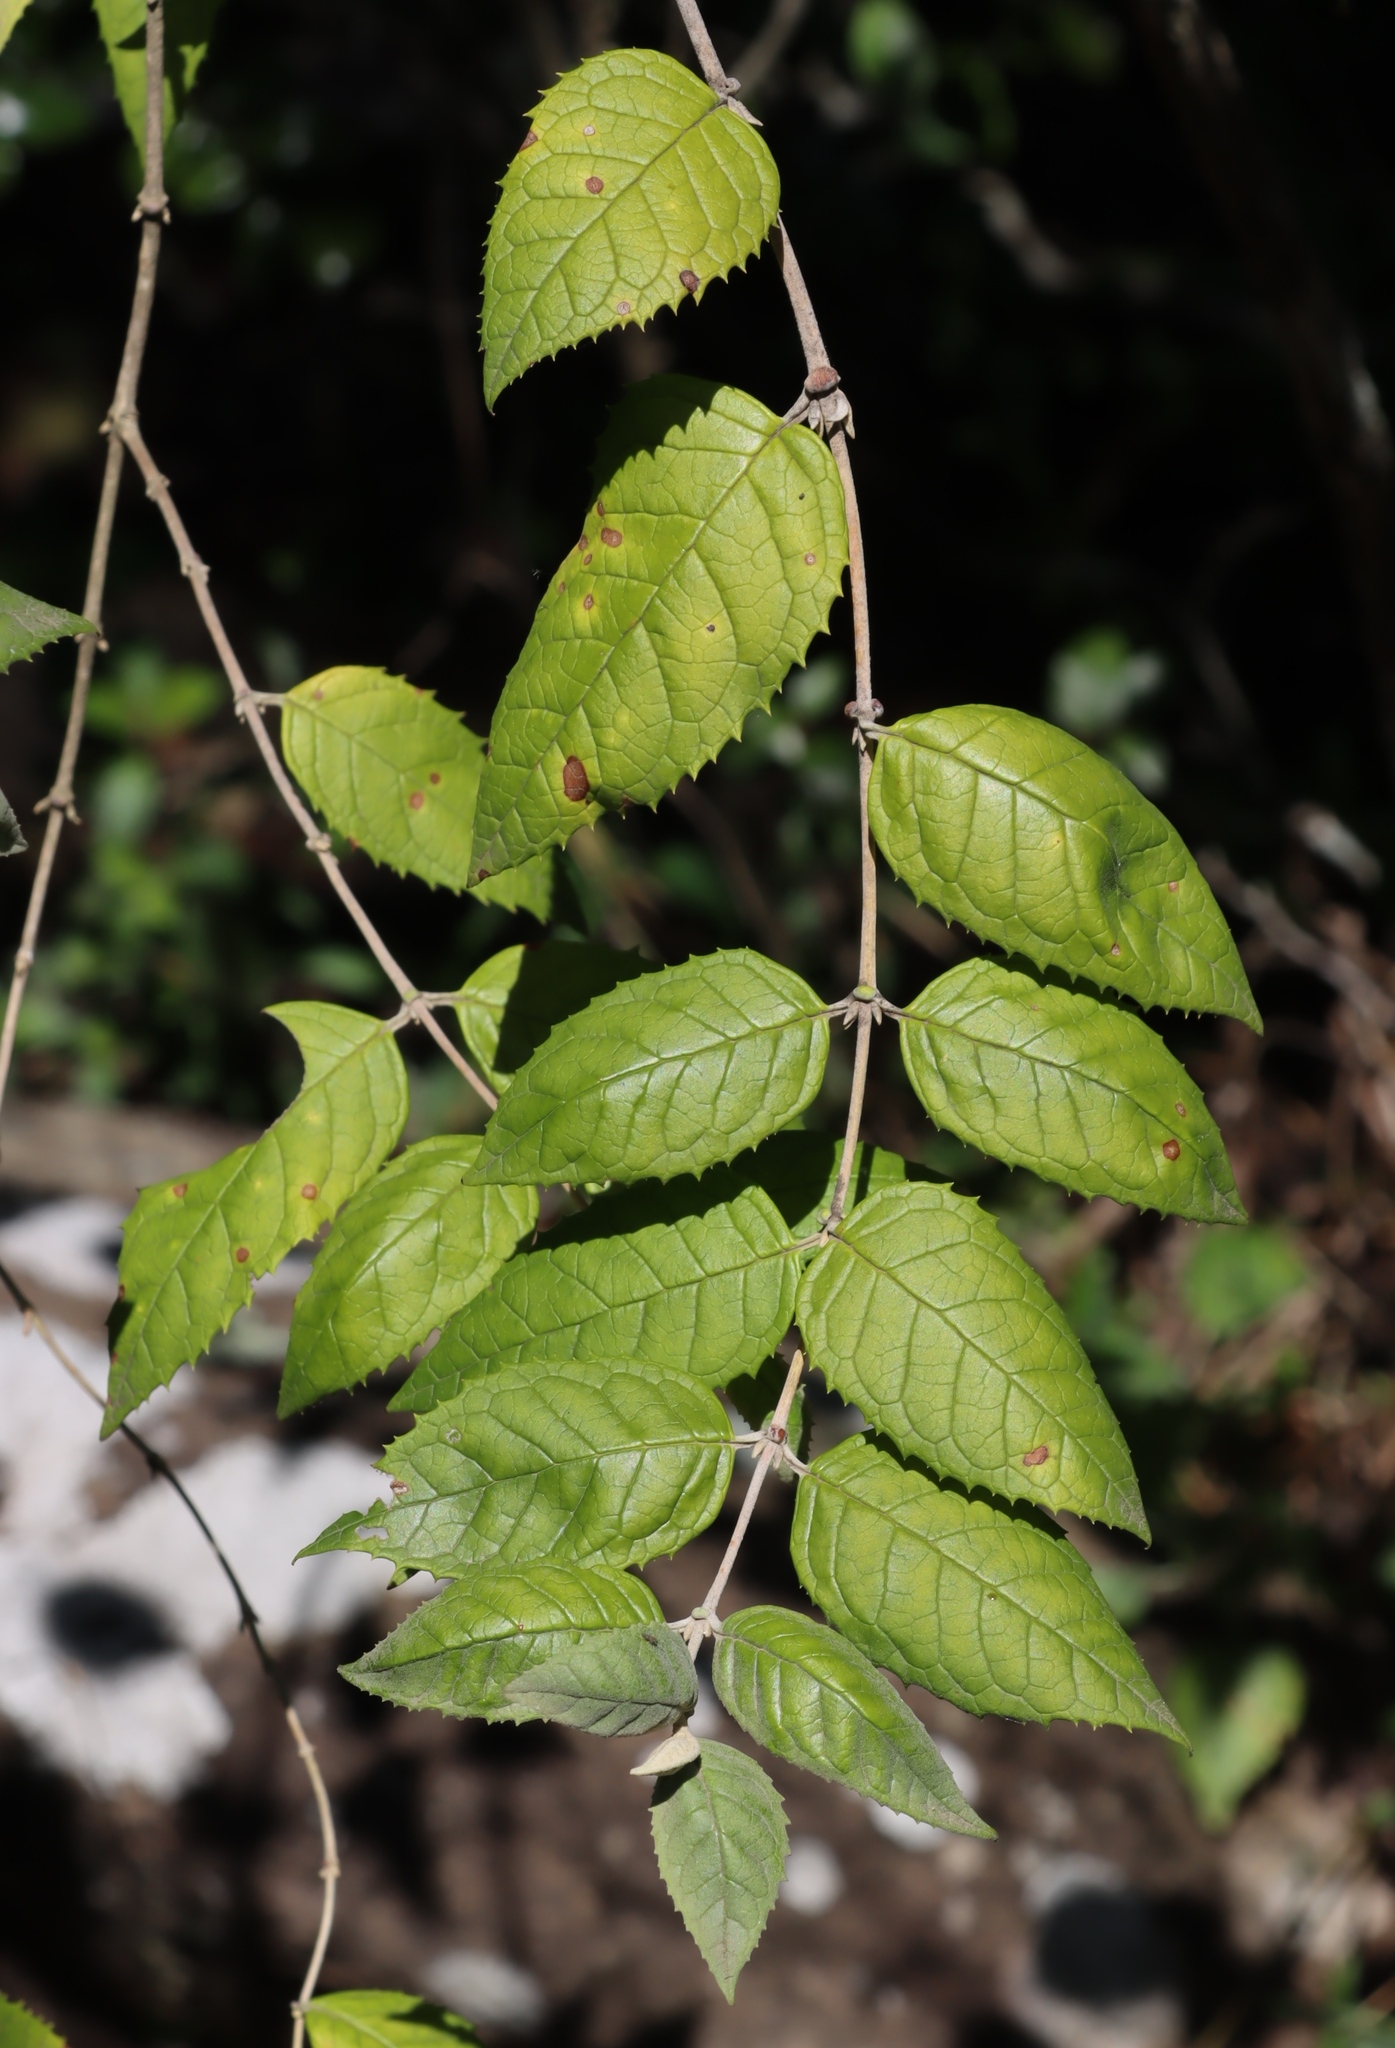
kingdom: Plantae
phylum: Tracheophyta
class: Magnoliopsida
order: Lamiales
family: Scrophulariaceae
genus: Buddleja
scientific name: Buddleja auriculata
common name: Weeping sagewood
